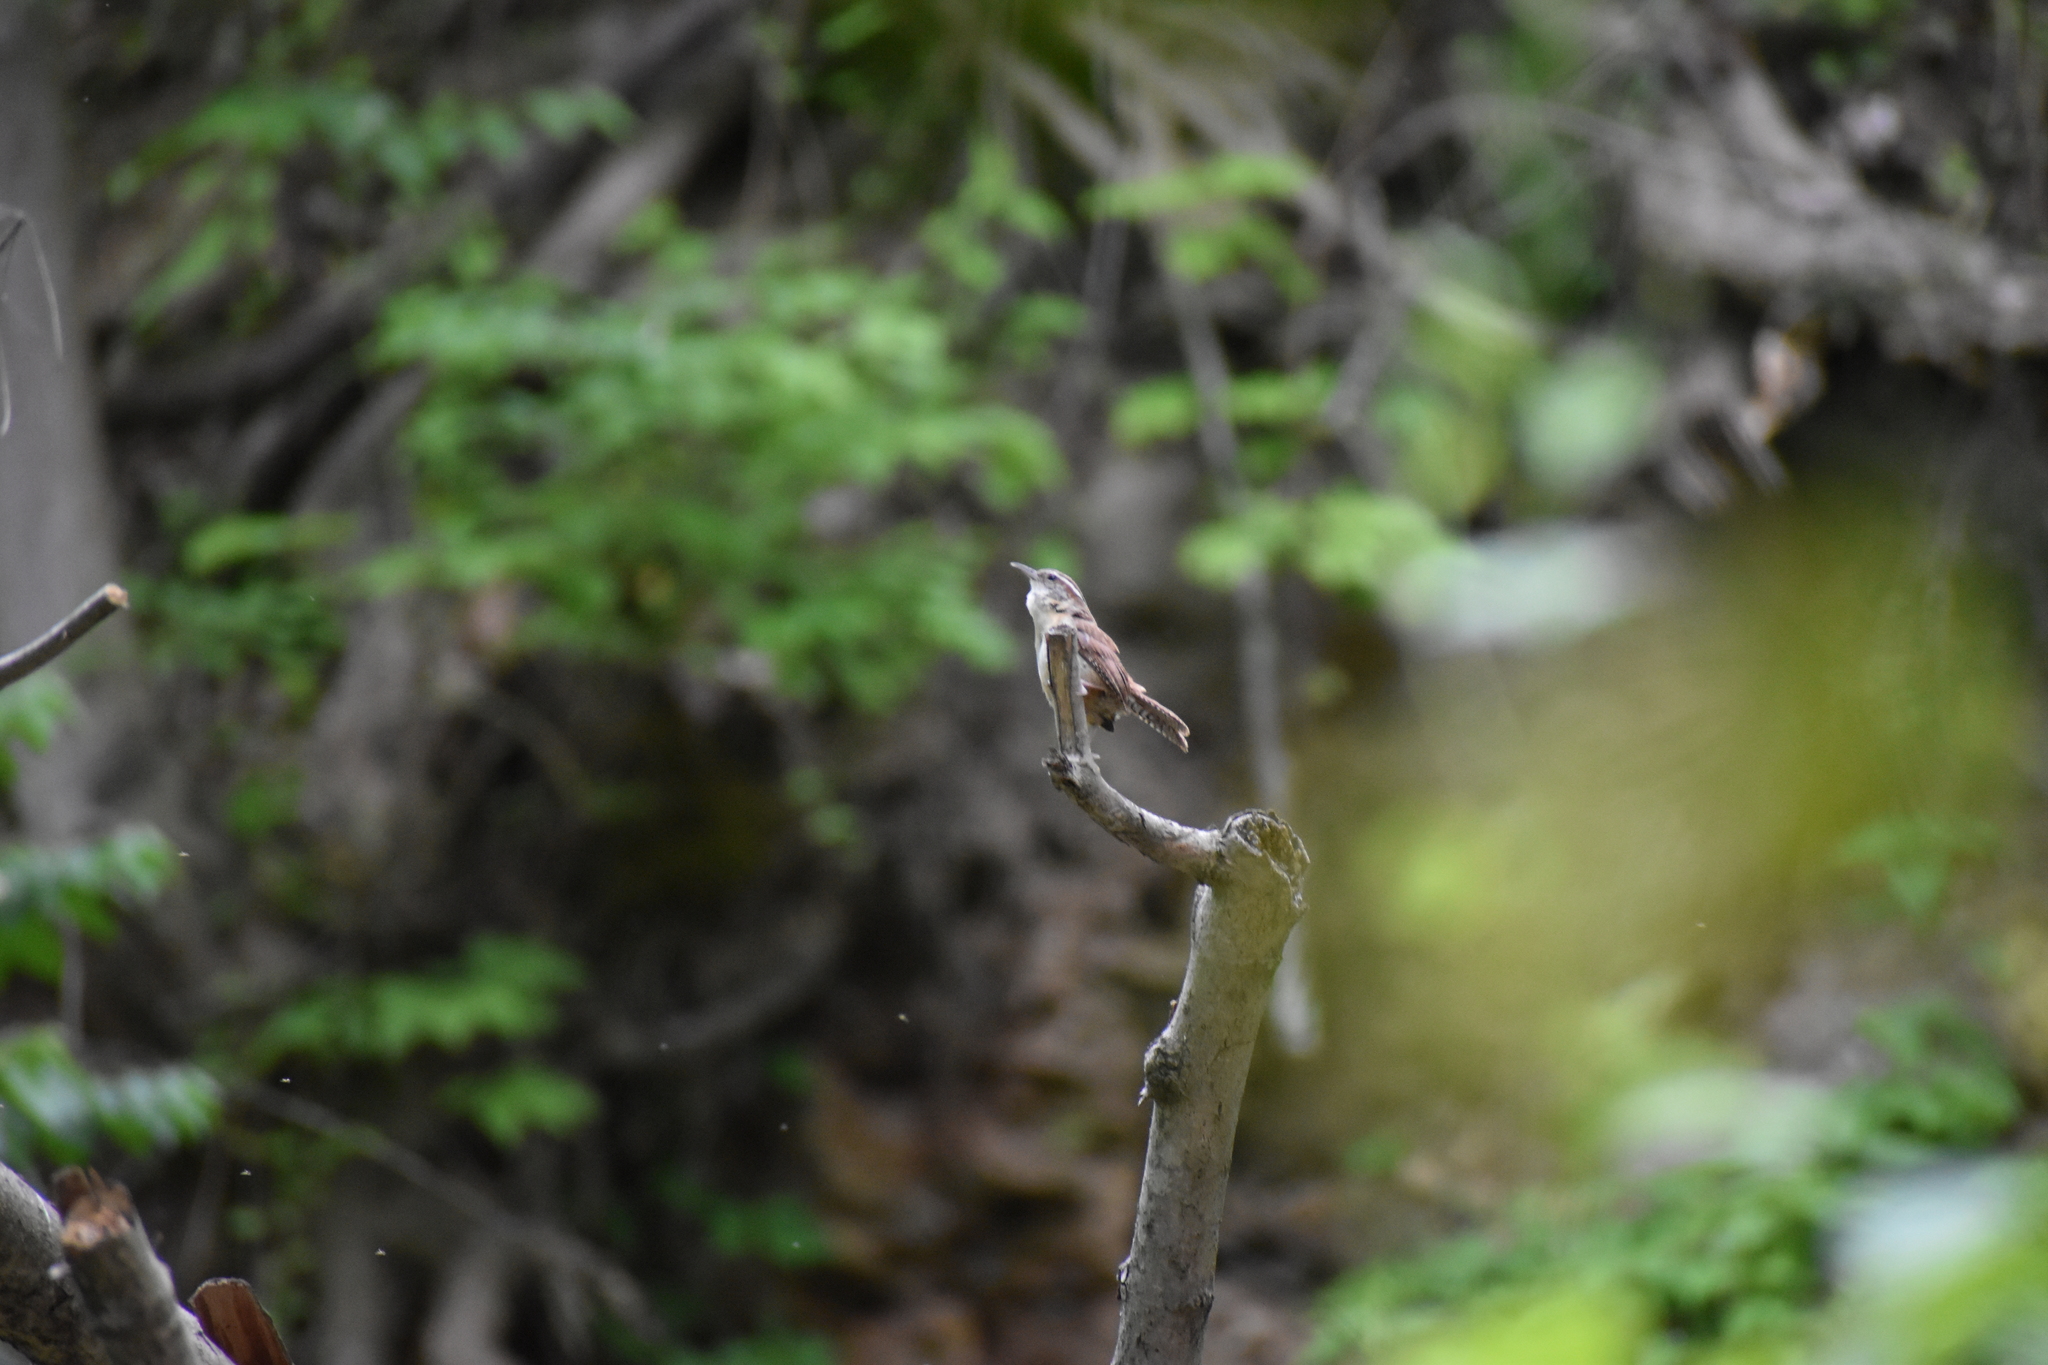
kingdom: Animalia
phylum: Chordata
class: Aves
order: Passeriformes
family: Troglodytidae
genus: Thryothorus
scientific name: Thryothorus ludovicianus
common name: Carolina wren
